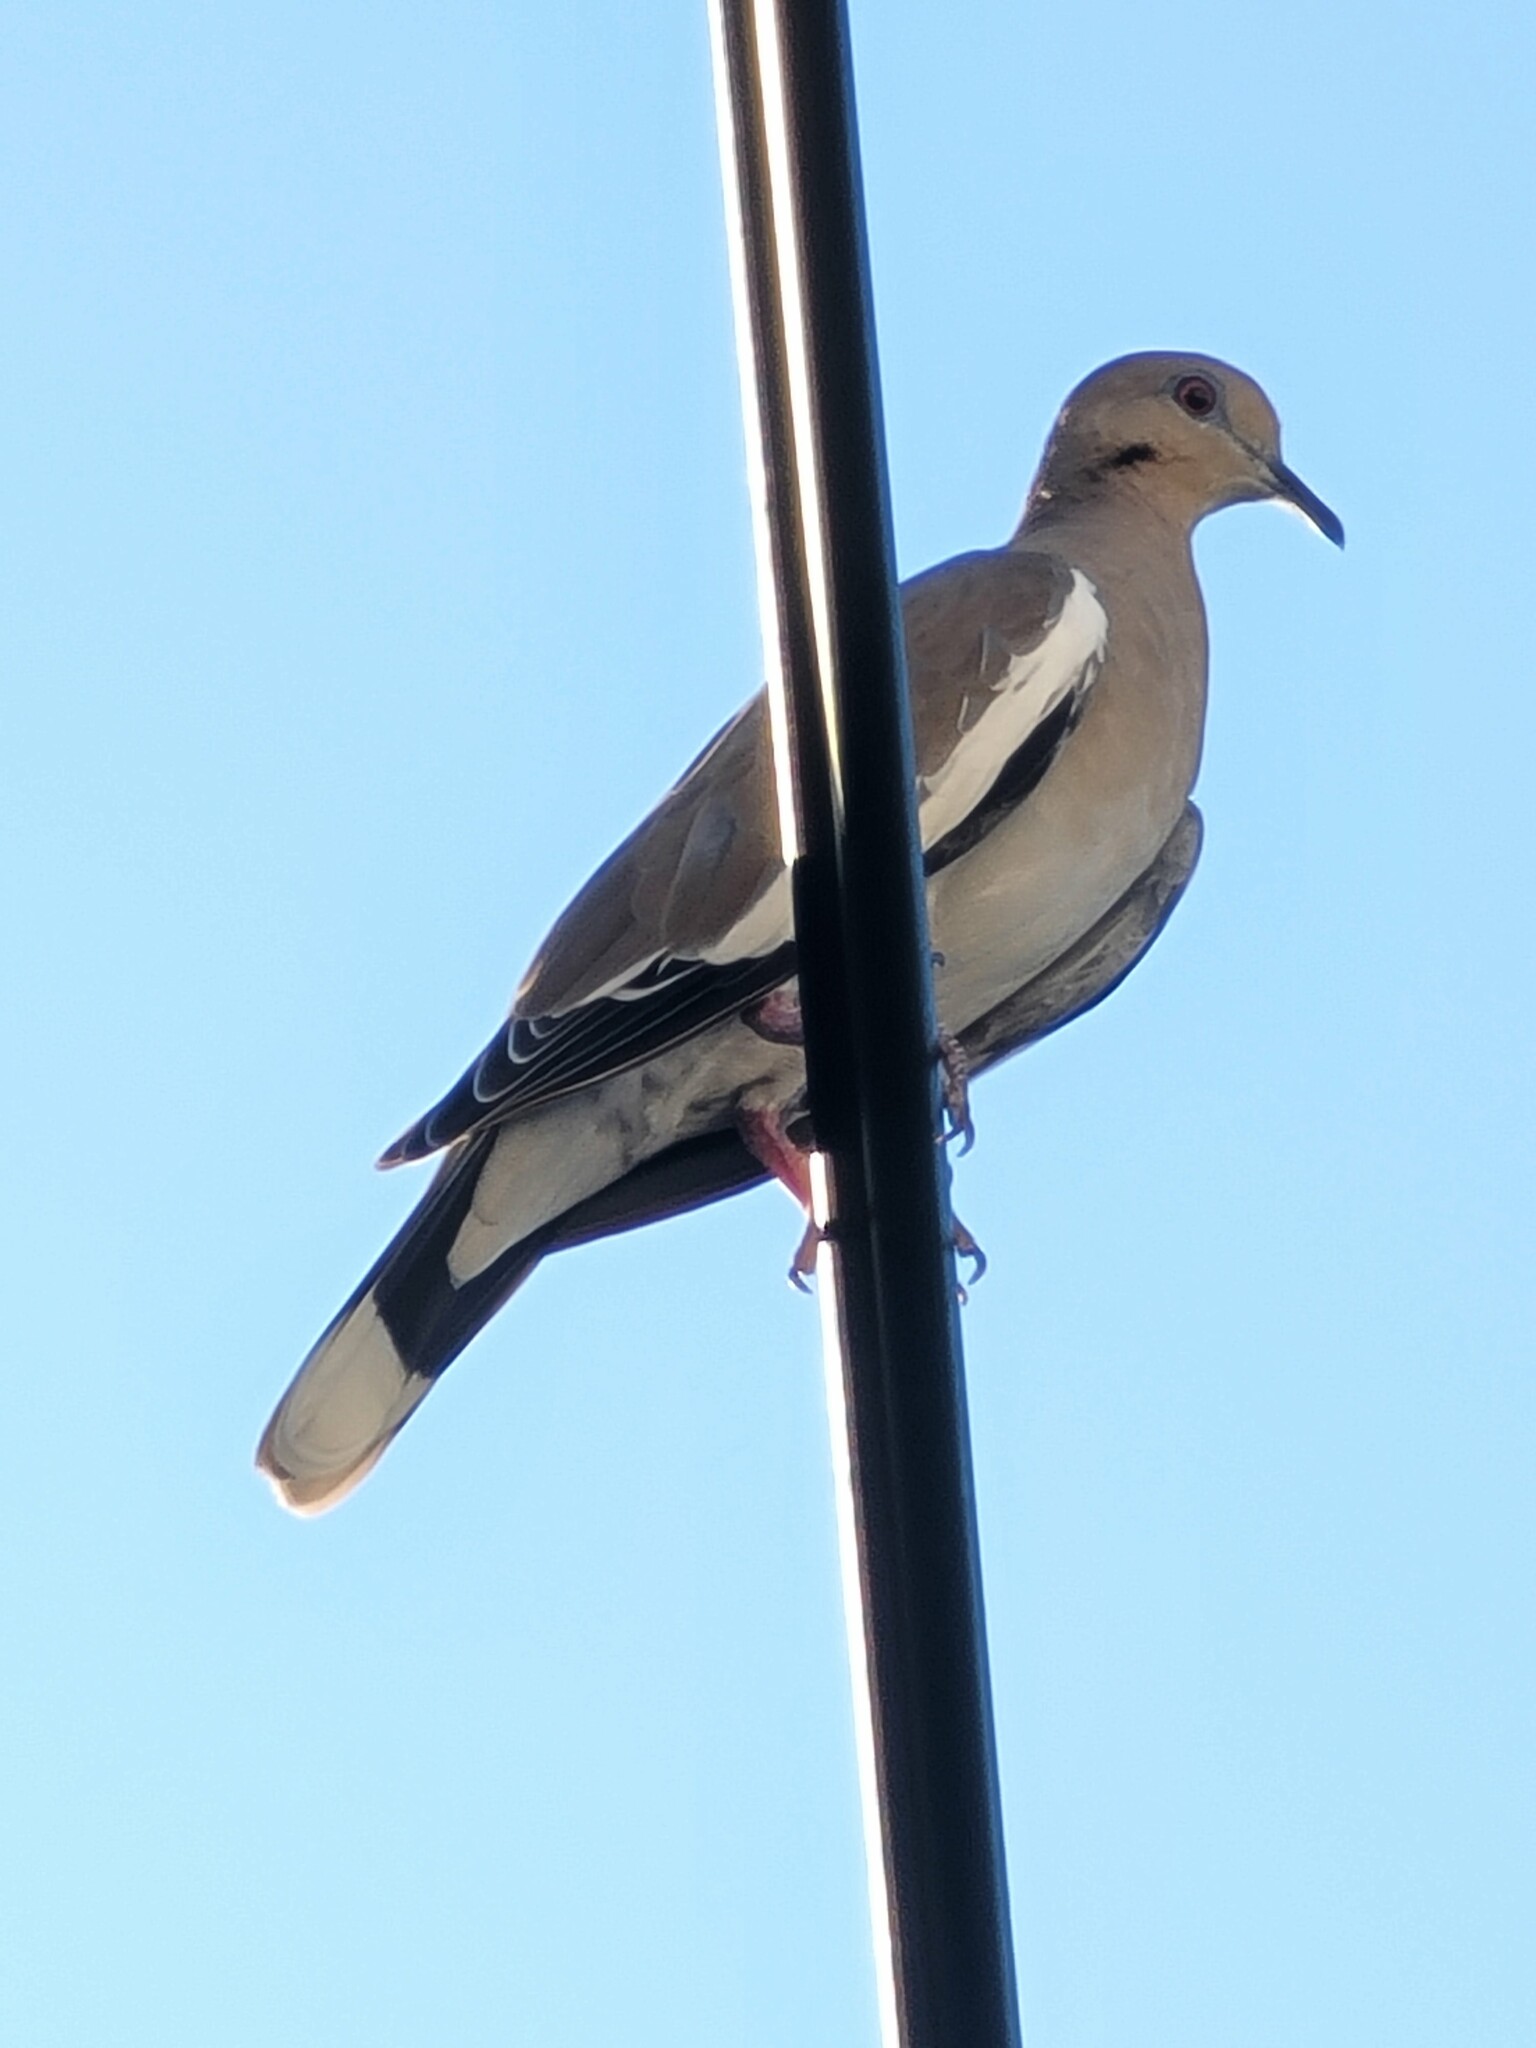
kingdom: Animalia
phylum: Chordata
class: Aves
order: Columbiformes
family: Columbidae
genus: Zenaida
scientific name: Zenaida asiatica
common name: White-winged dove
